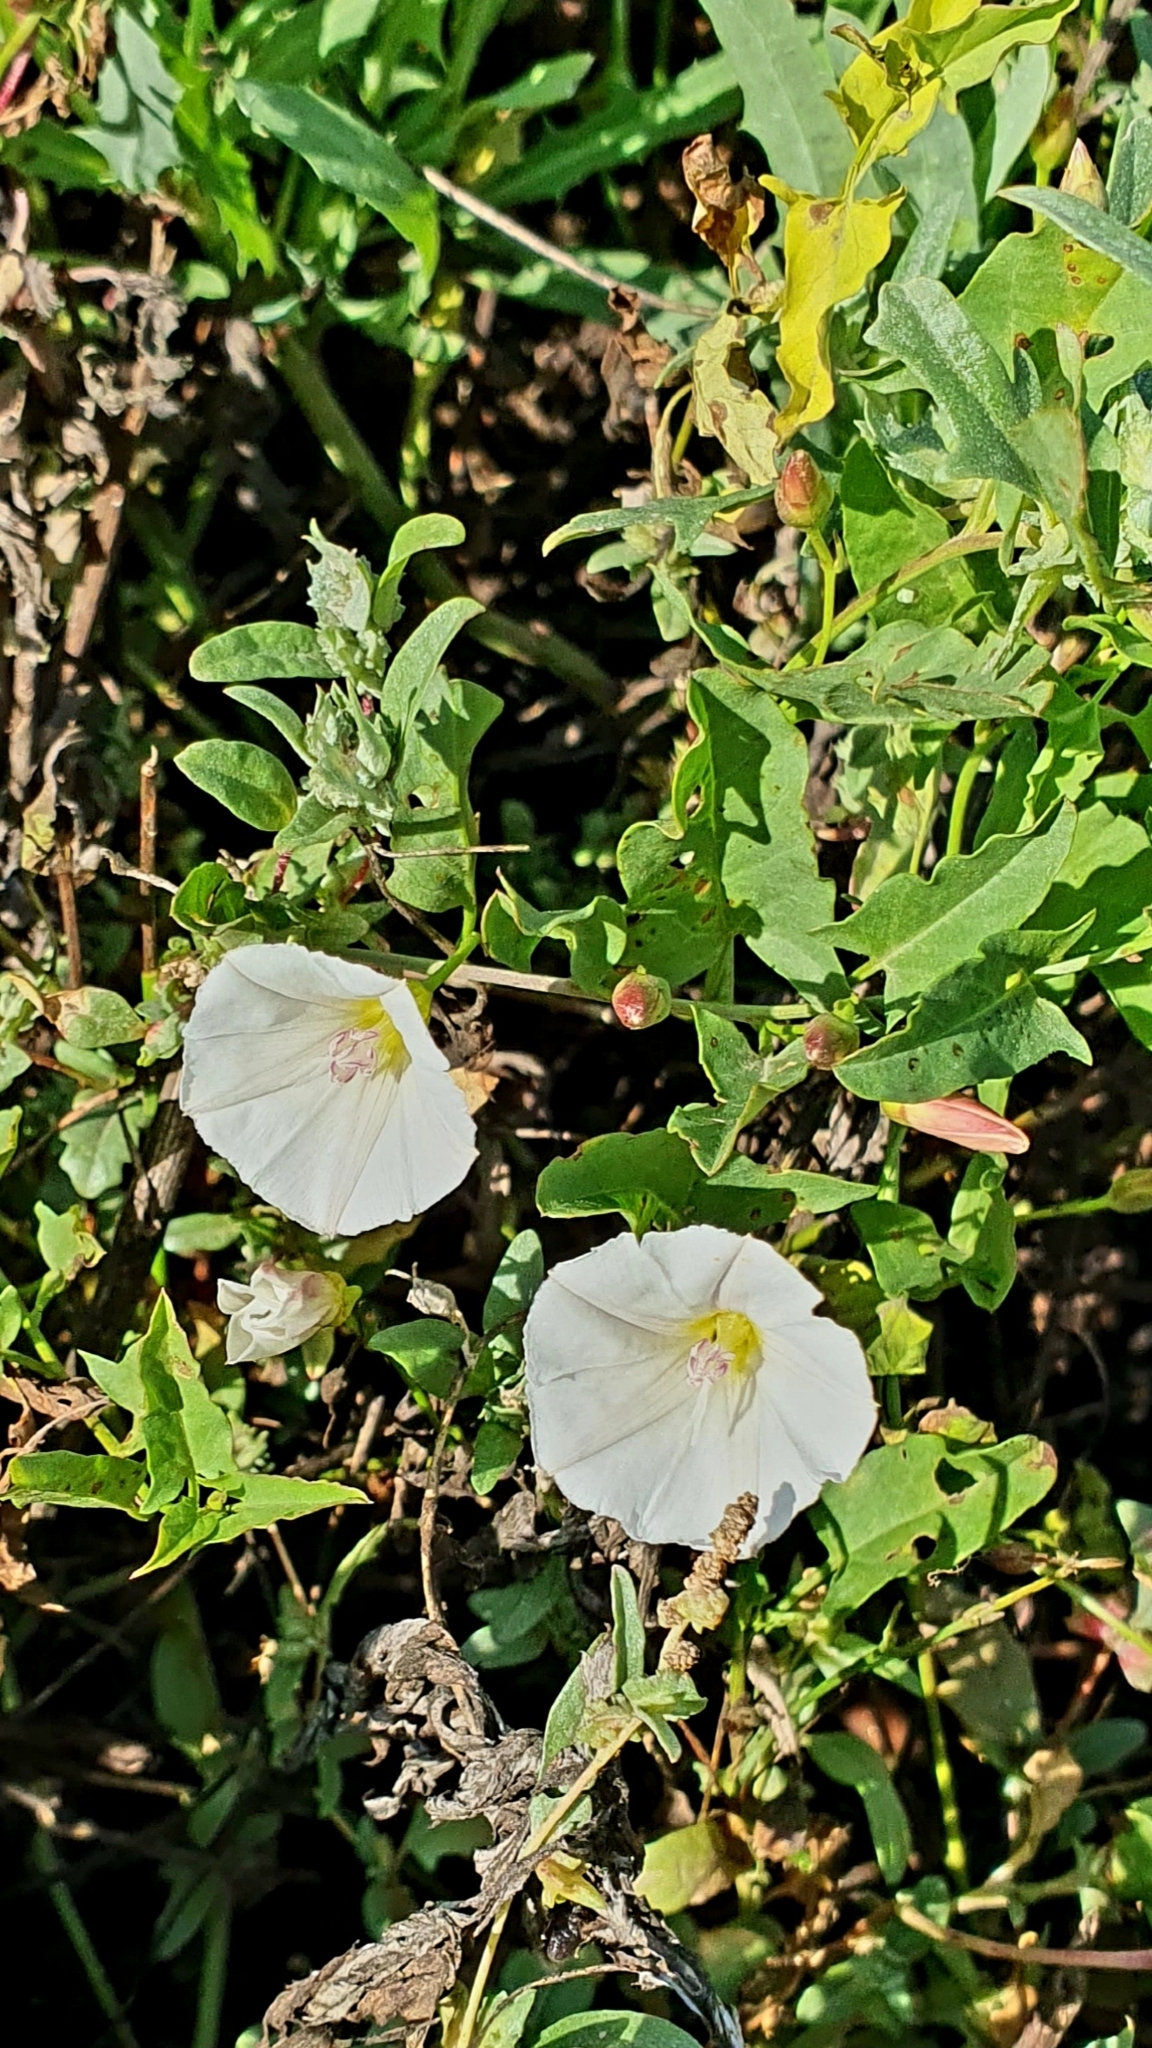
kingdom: Plantae
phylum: Tracheophyta
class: Magnoliopsida
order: Solanales
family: Convolvulaceae
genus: Convolvulus
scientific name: Convolvulus arvensis
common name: Field bindweed
